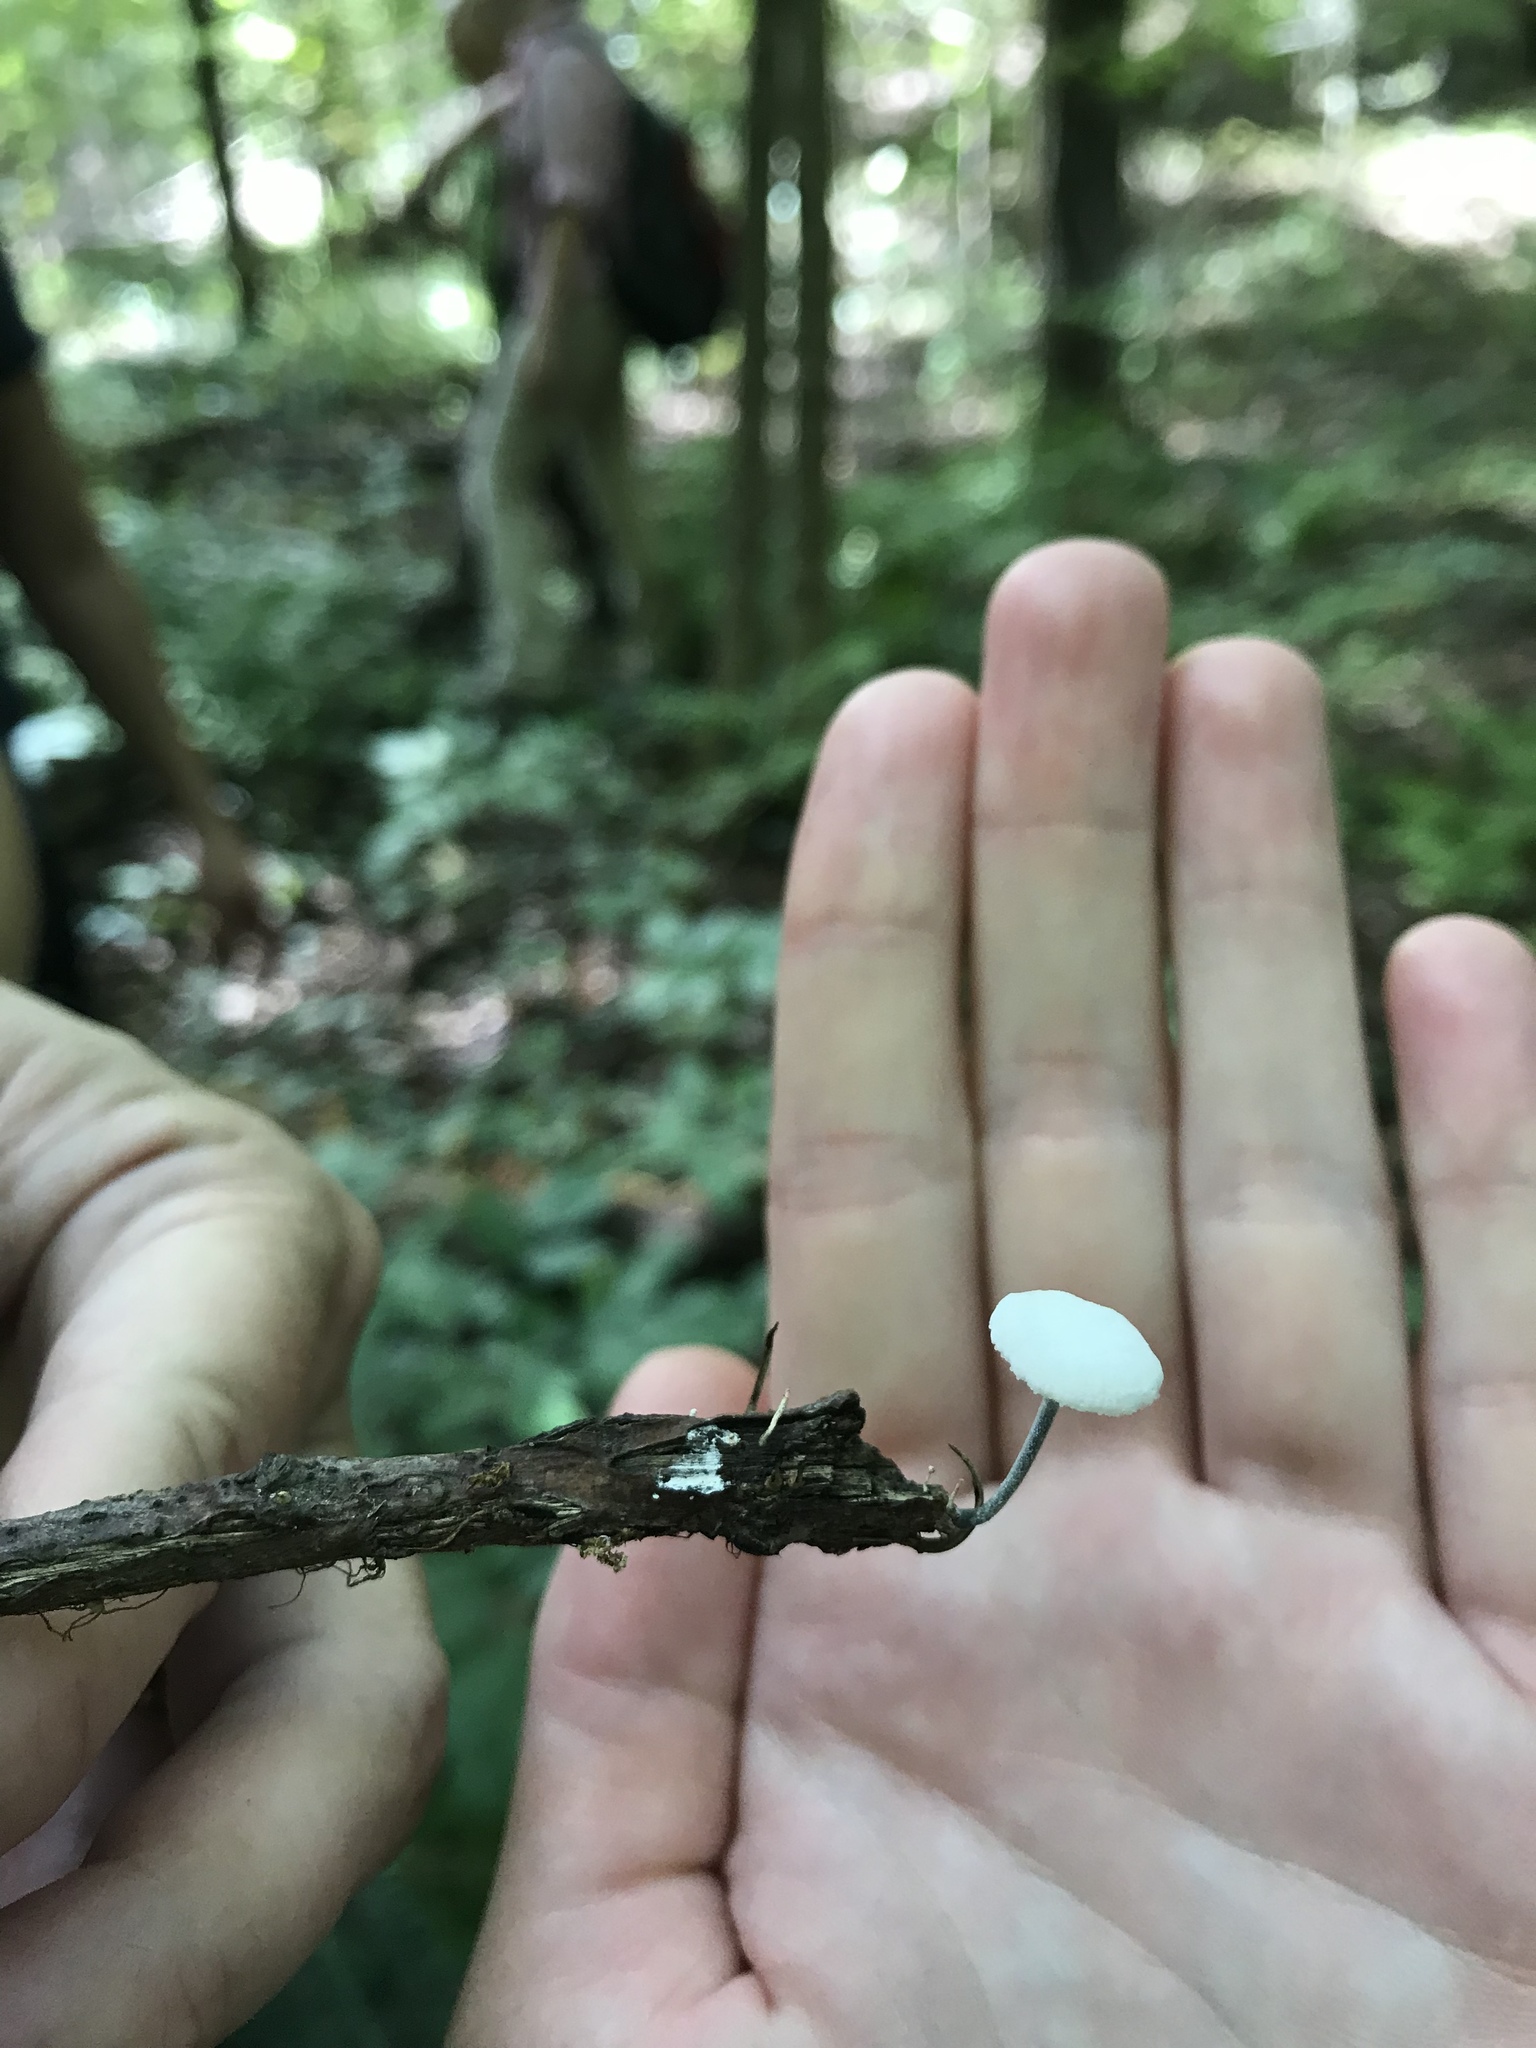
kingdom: Fungi
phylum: Basidiomycota
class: Agaricomycetes
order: Agaricales
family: Marasmiaceae
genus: Tetrapyrgos
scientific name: Tetrapyrgos nigripes
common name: Black-stalked marasmius
